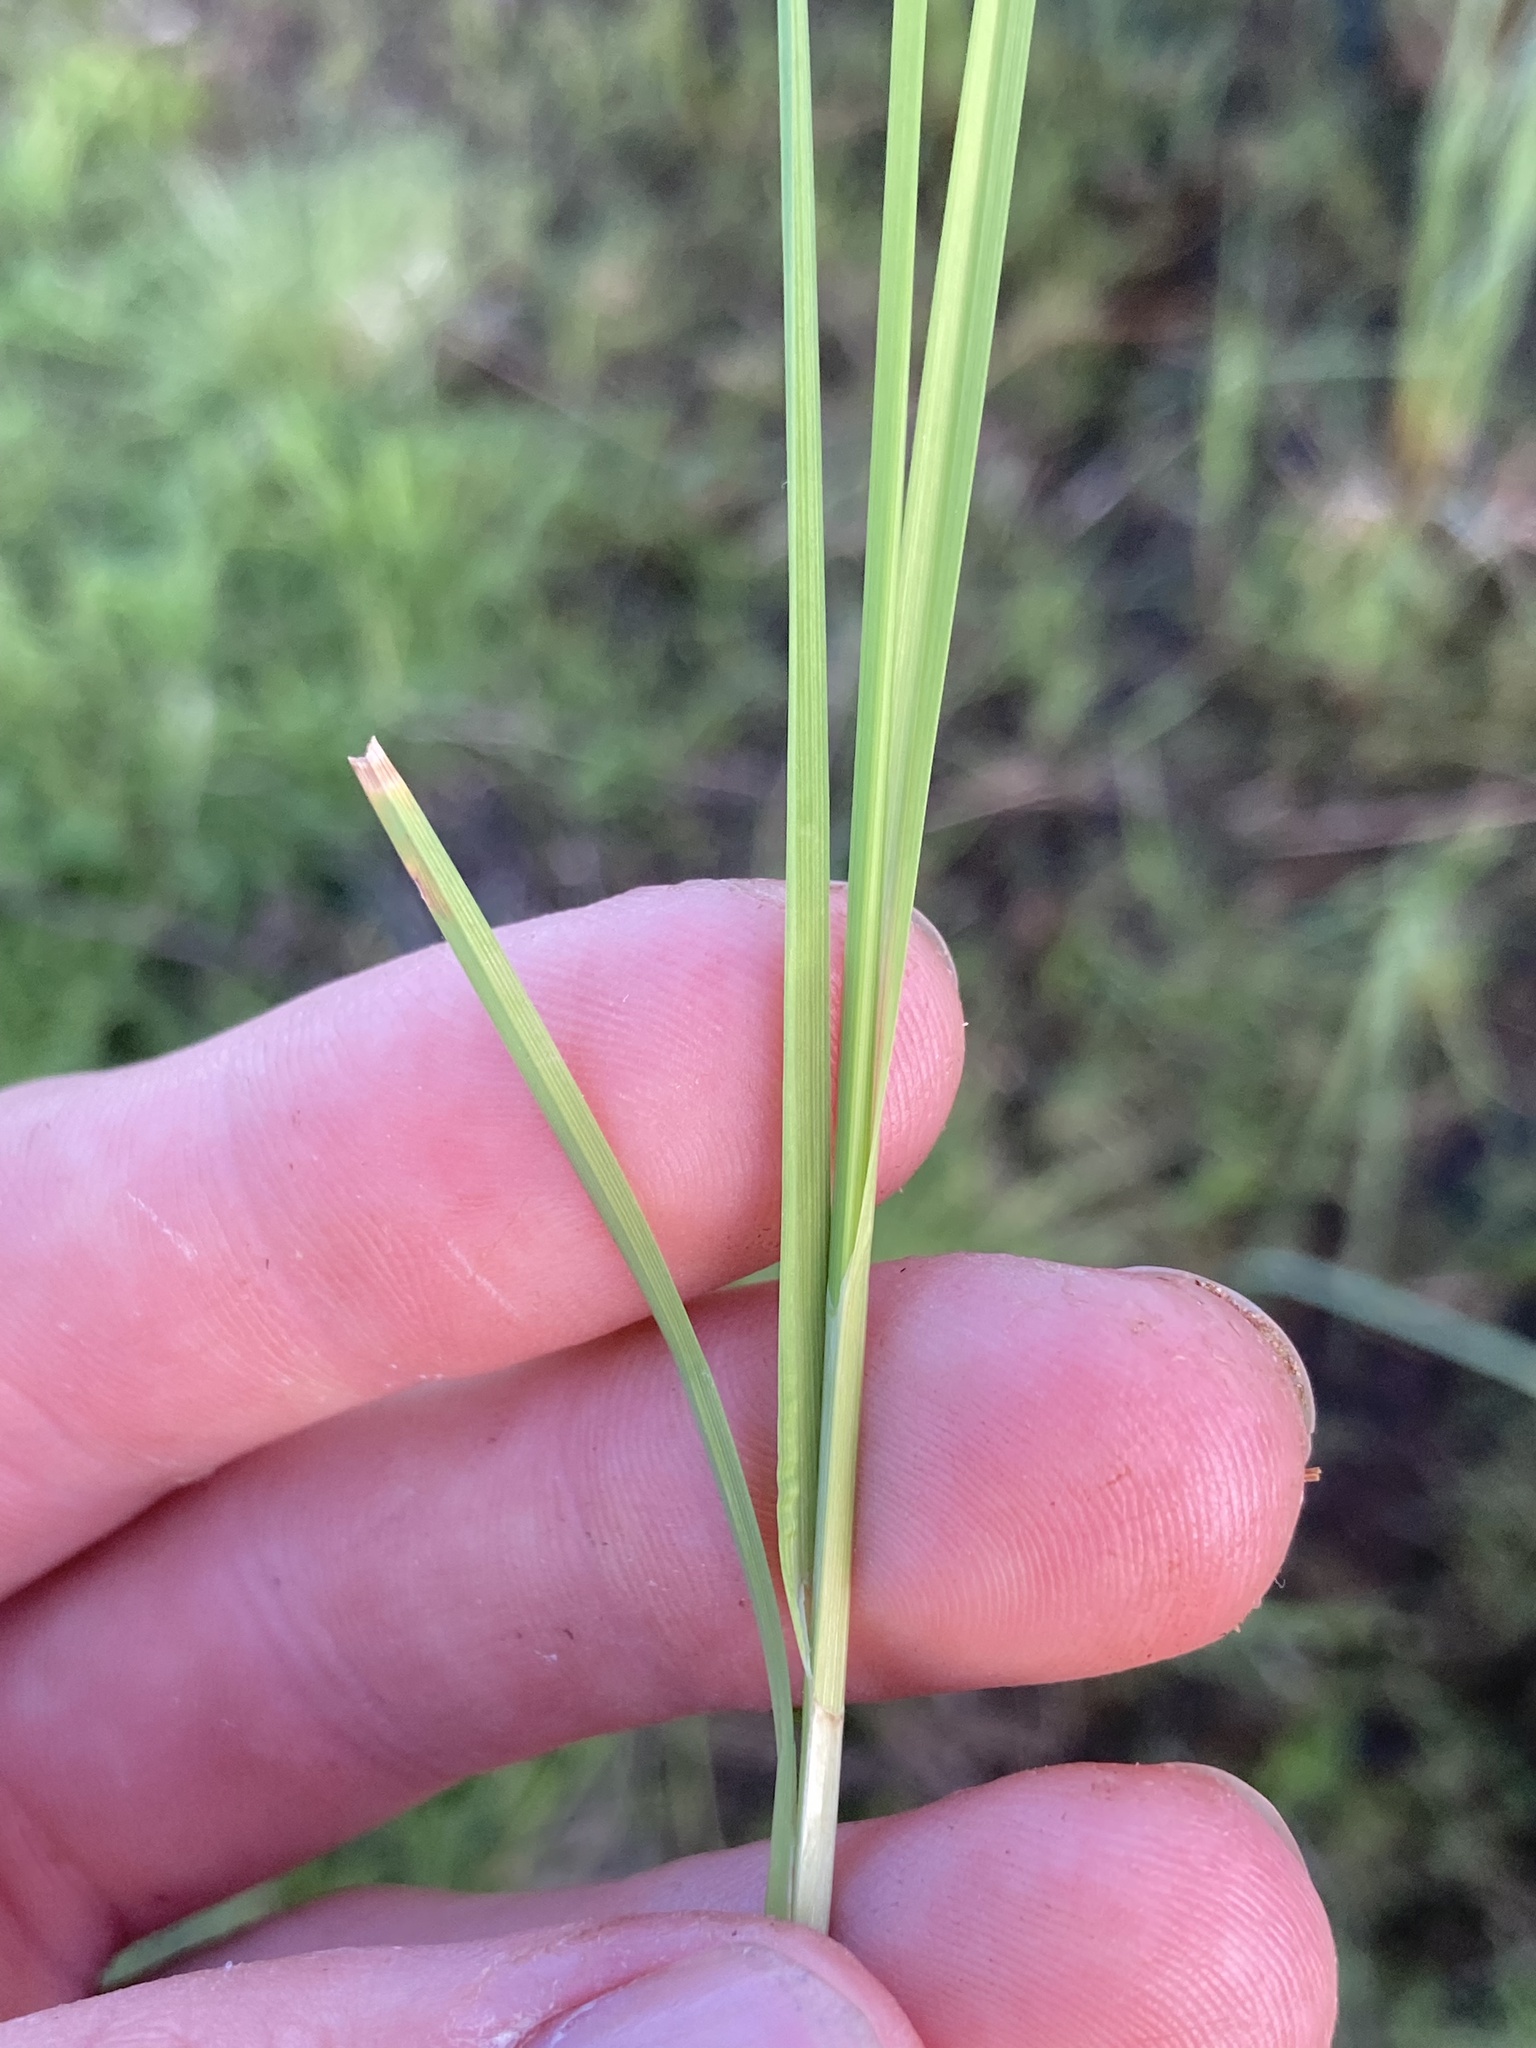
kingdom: Plantae
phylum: Tracheophyta
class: Liliopsida
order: Poales
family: Cyperaceae
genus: Carex
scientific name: Carex canescens
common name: White sedge
